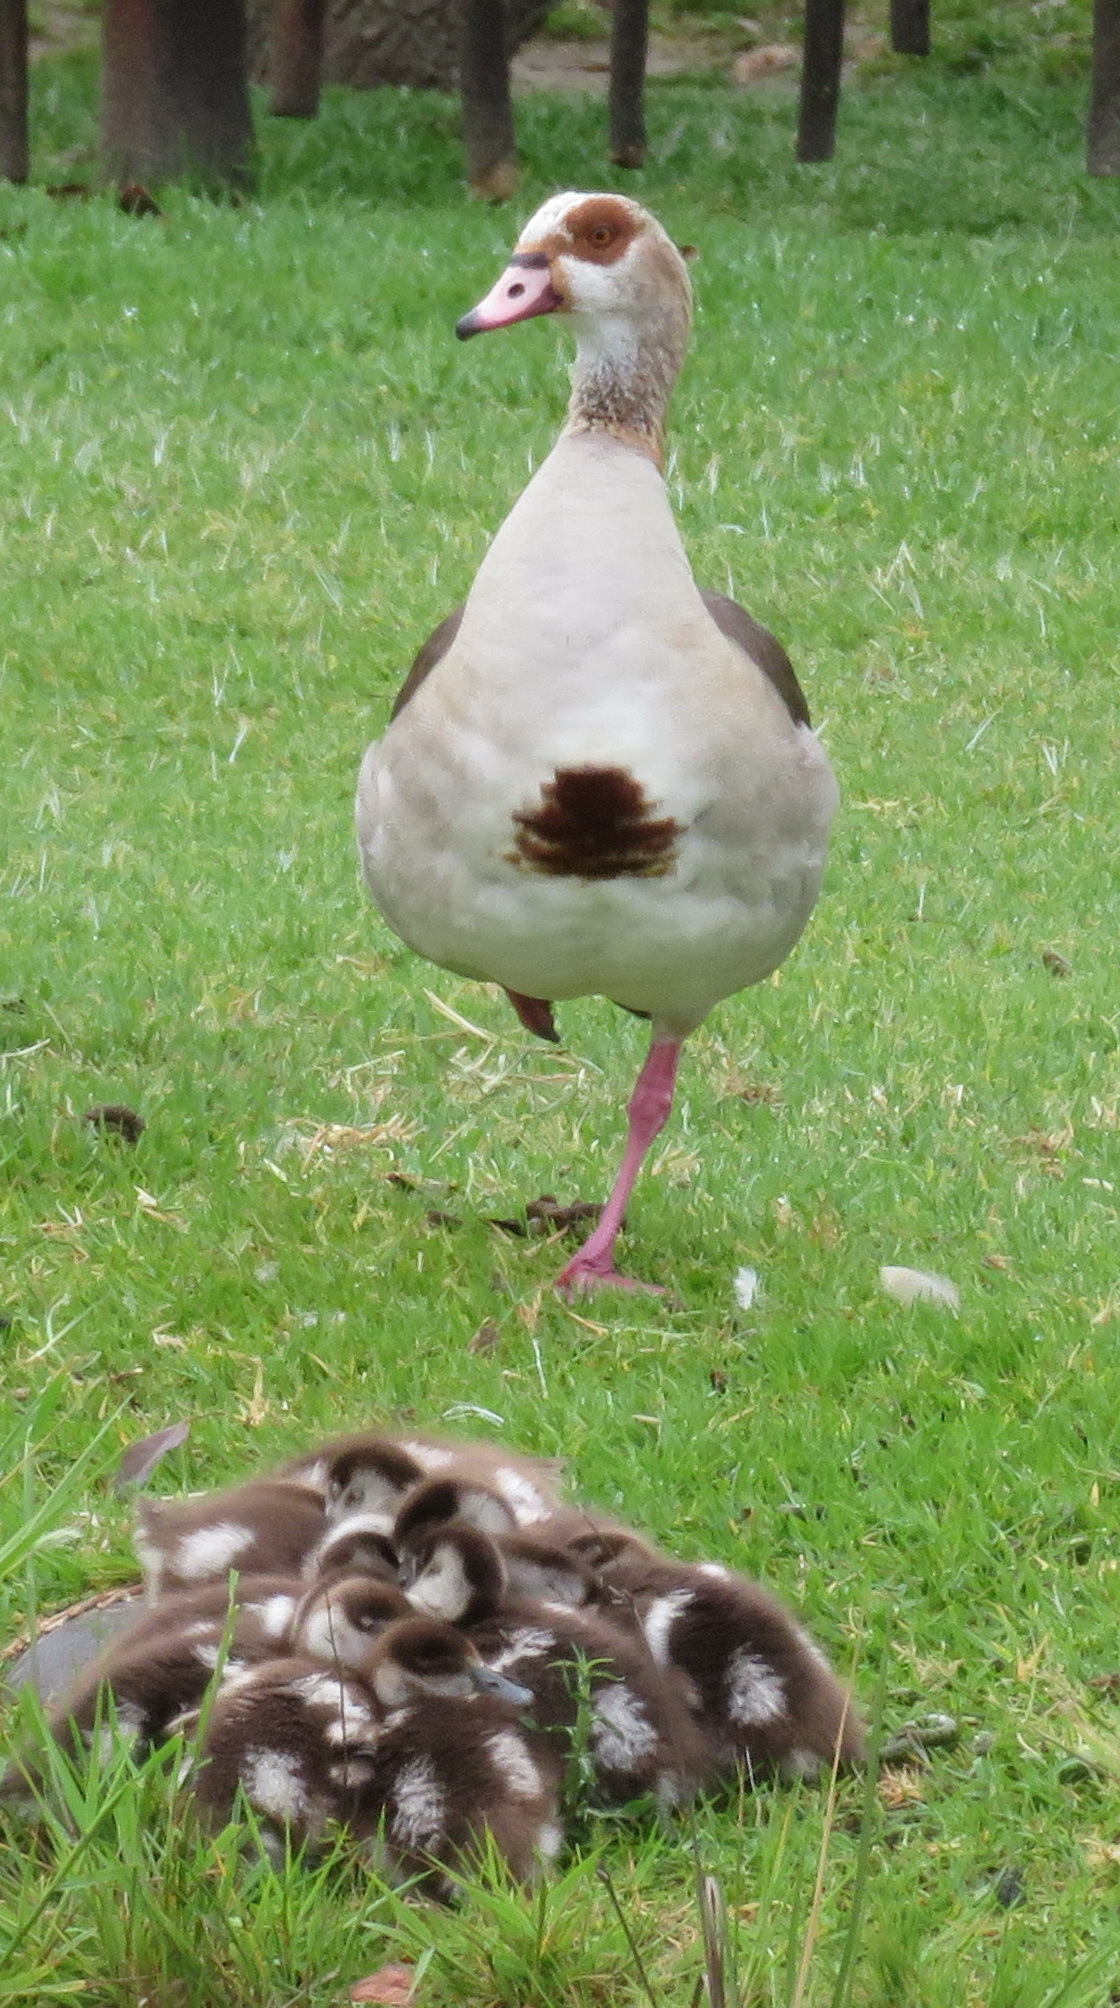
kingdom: Animalia
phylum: Chordata
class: Aves
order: Anseriformes
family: Anatidae
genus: Alopochen
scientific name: Alopochen aegyptiaca
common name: Egyptian goose
